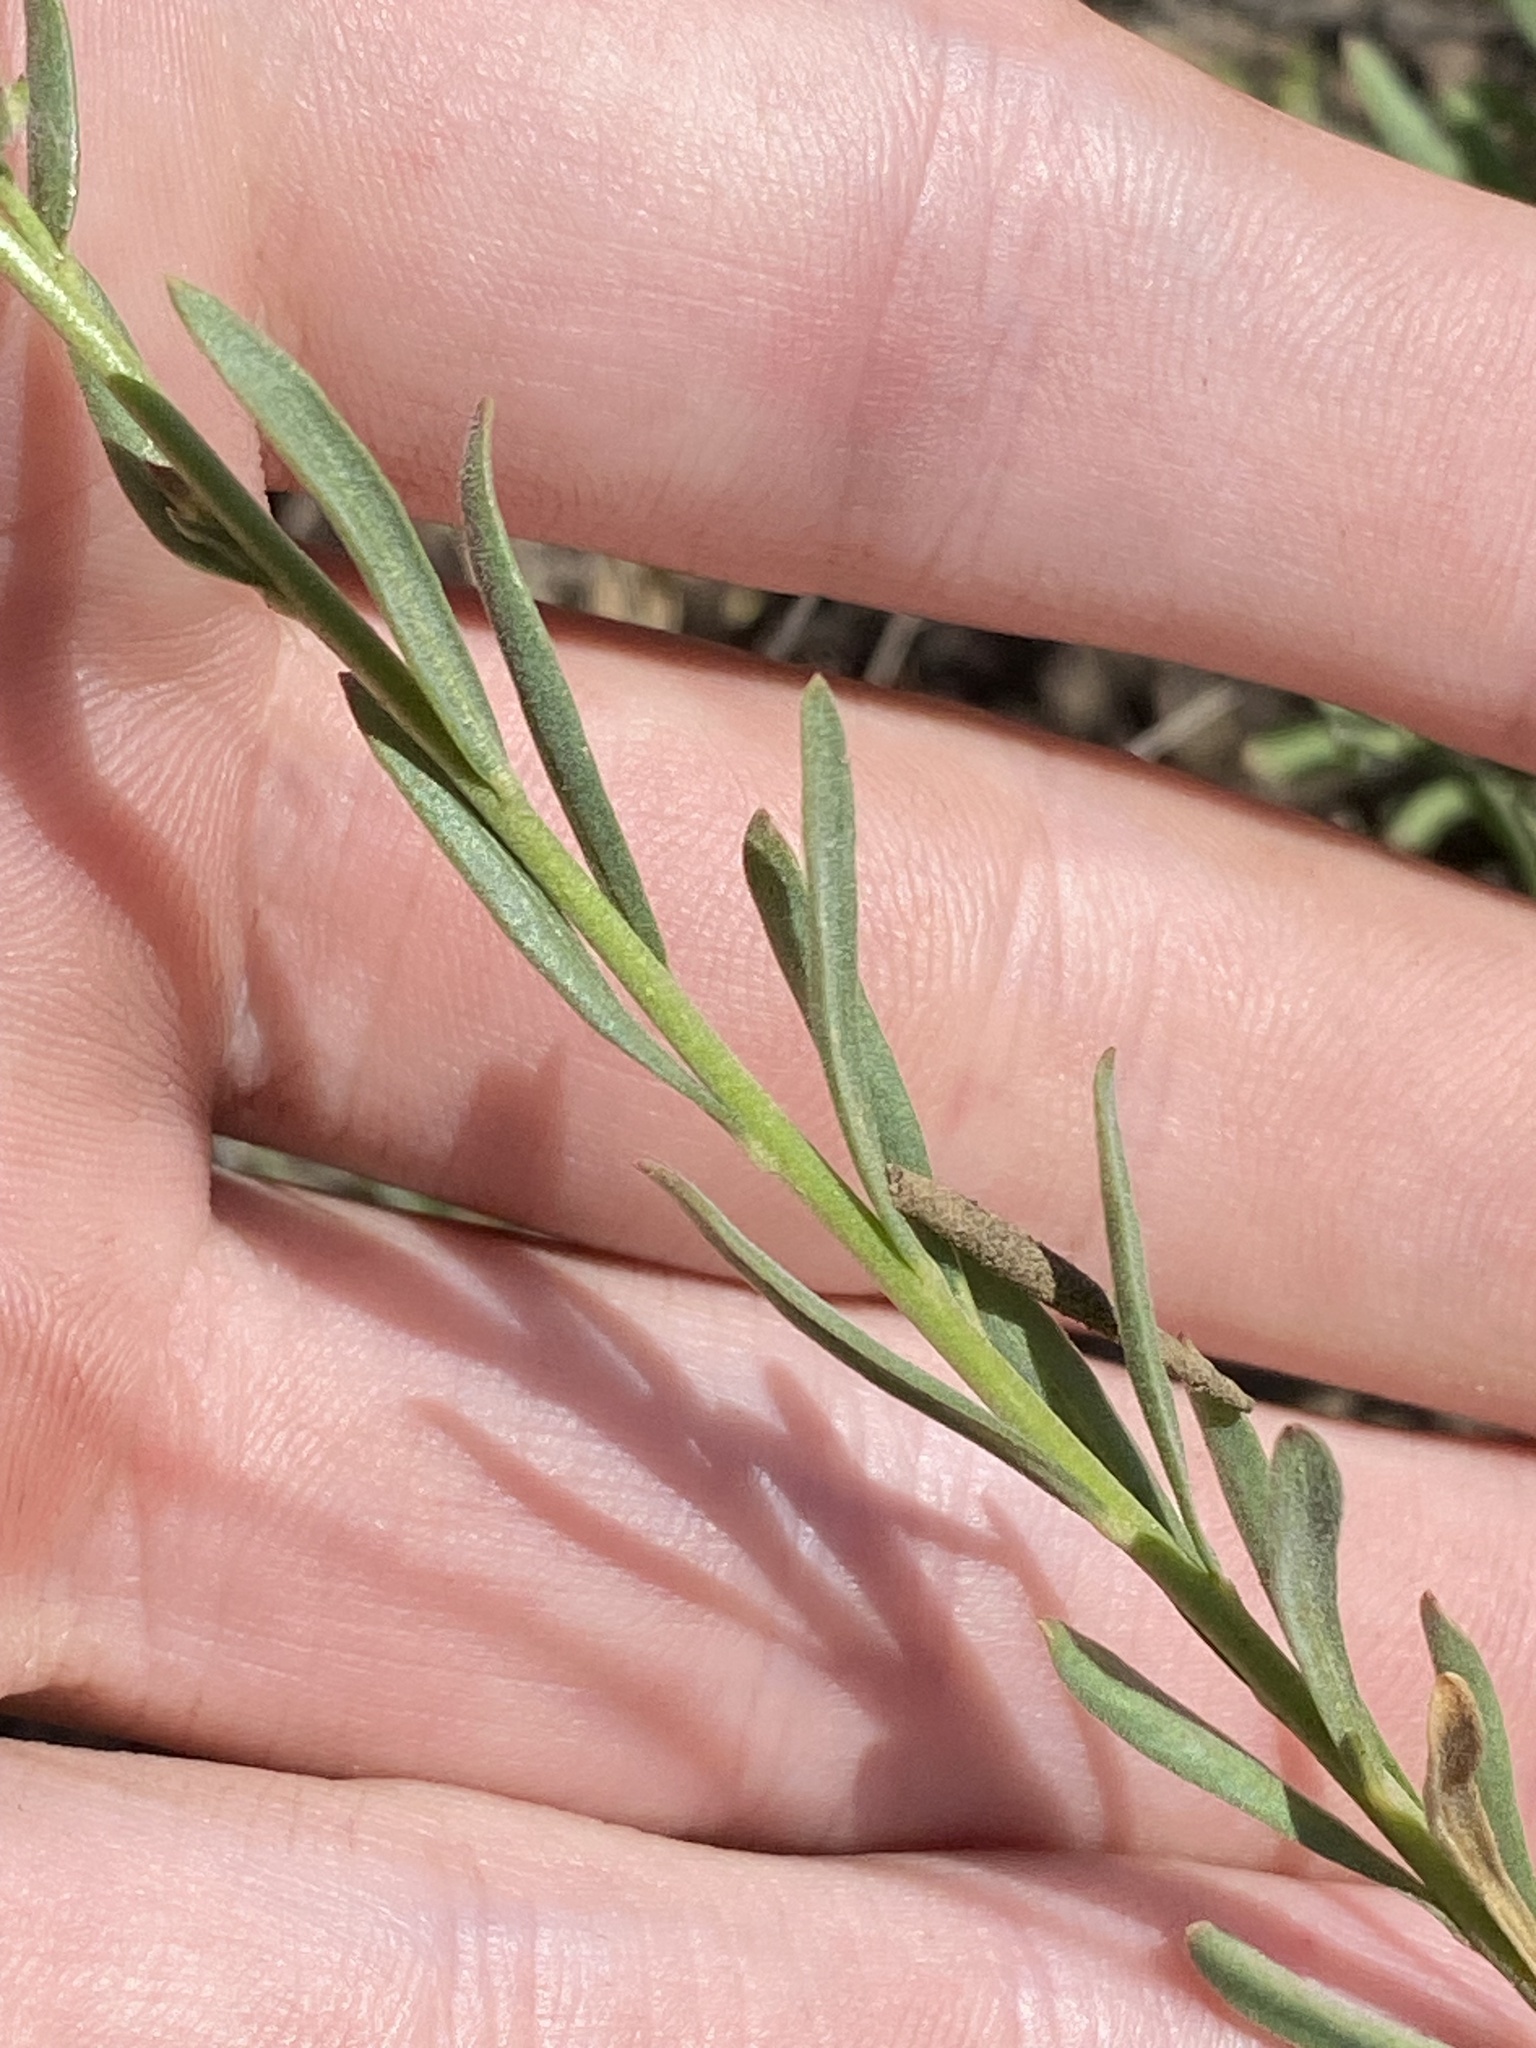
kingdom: Plantae
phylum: Tracheophyta
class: Magnoliopsida
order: Lamiales
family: Plantaginaceae
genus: Penstemon
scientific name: Penstemon gairdneri
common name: Gairdner's penstemon
